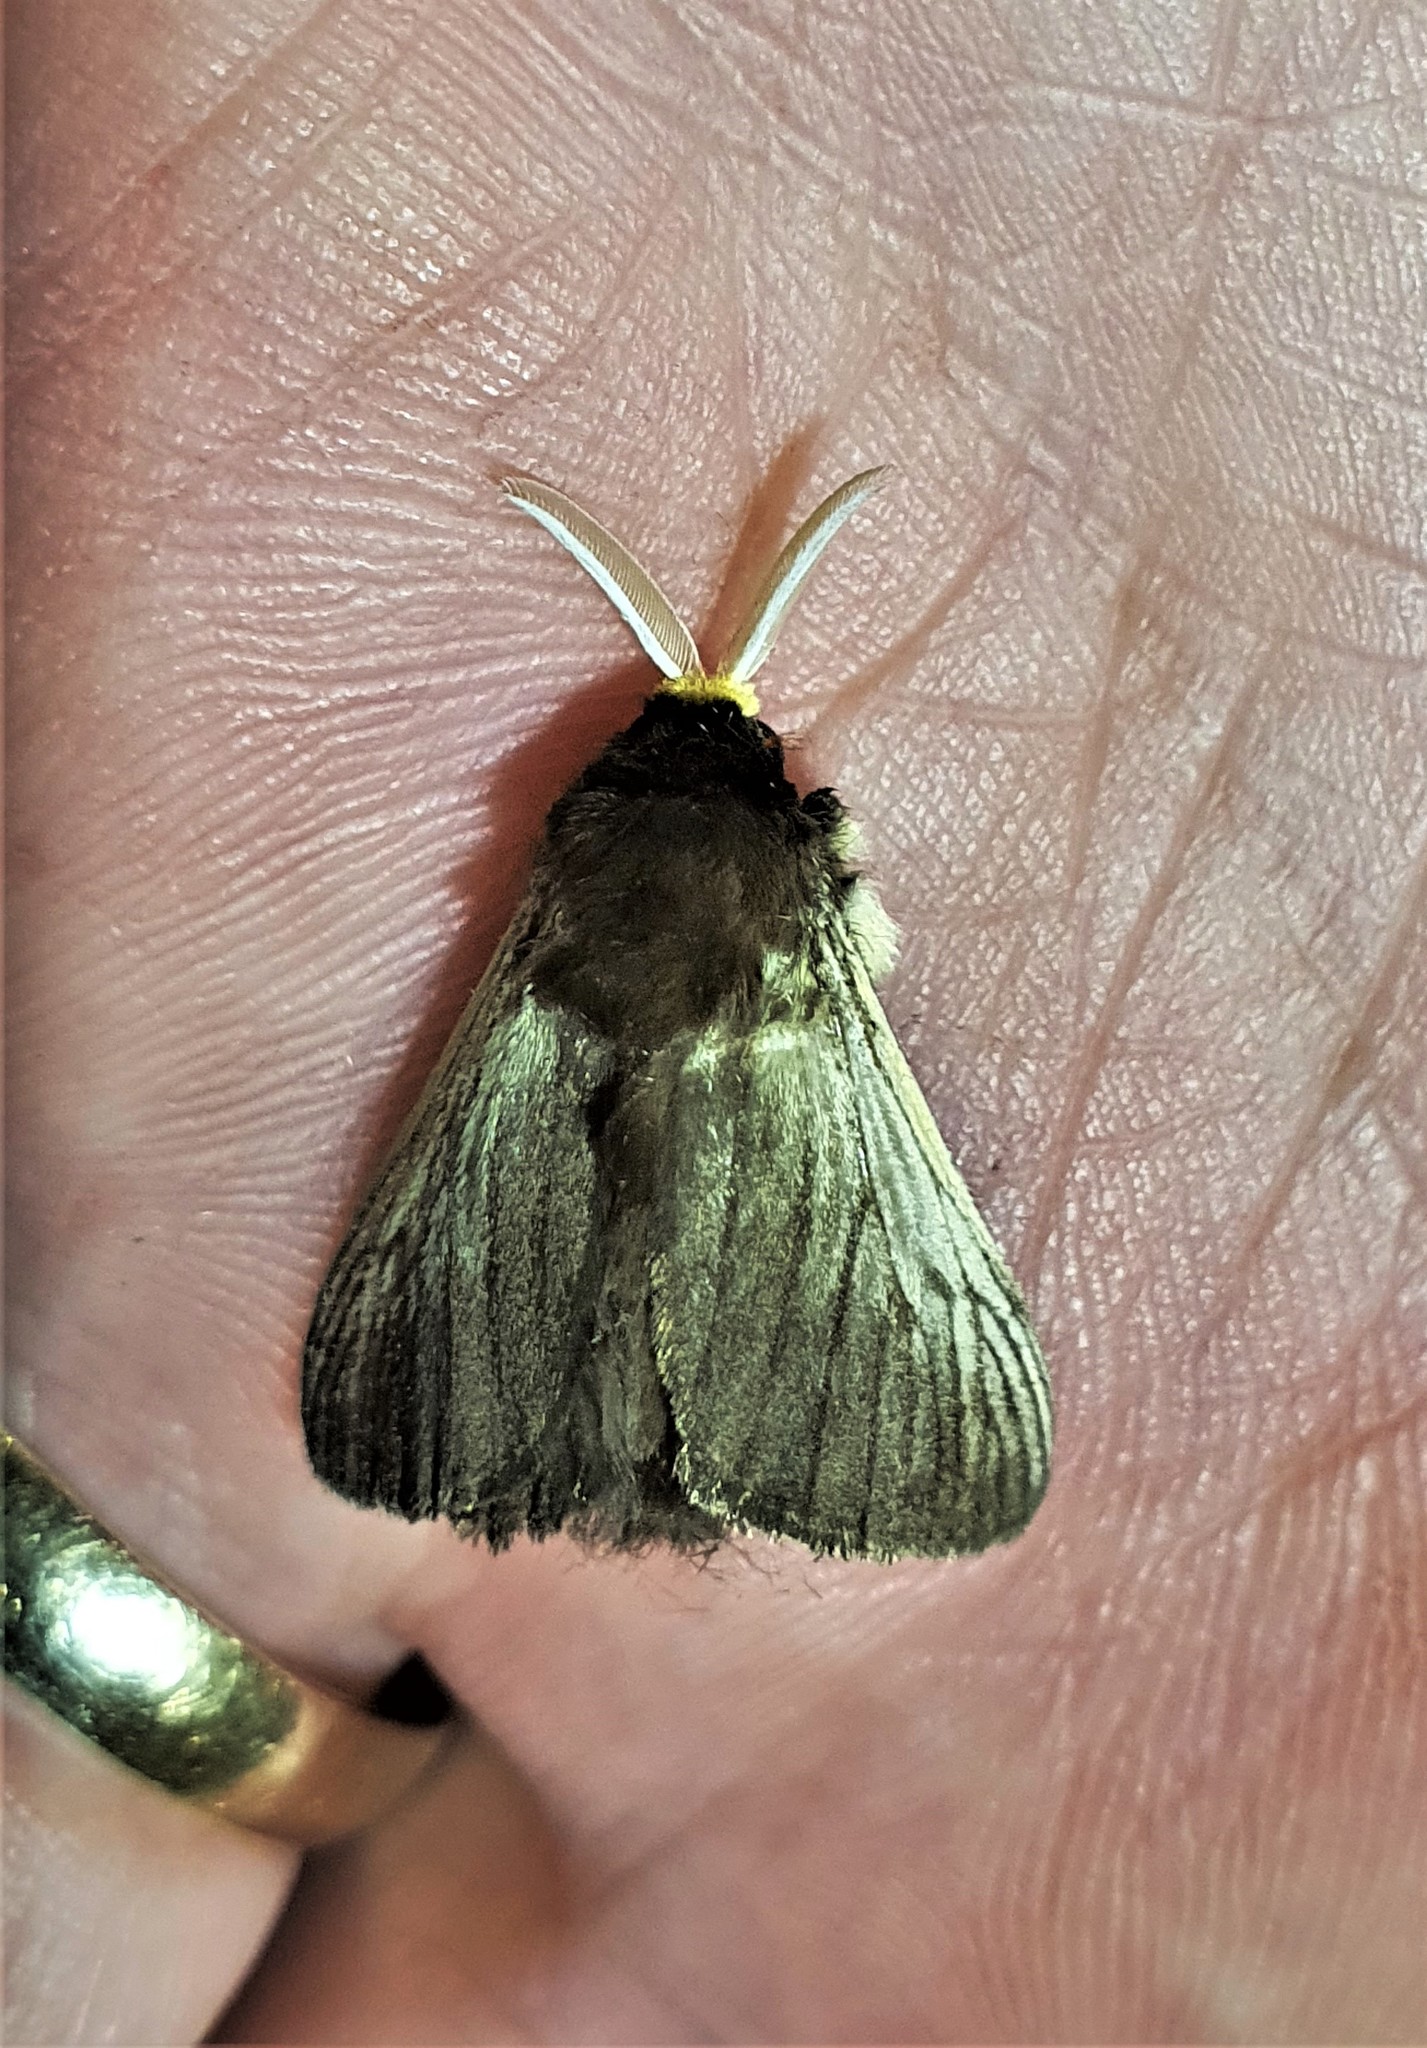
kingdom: Animalia
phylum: Arthropoda
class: Insecta
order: Lepidoptera
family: Megalopygidae
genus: Podalia
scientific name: Podalia tympania
